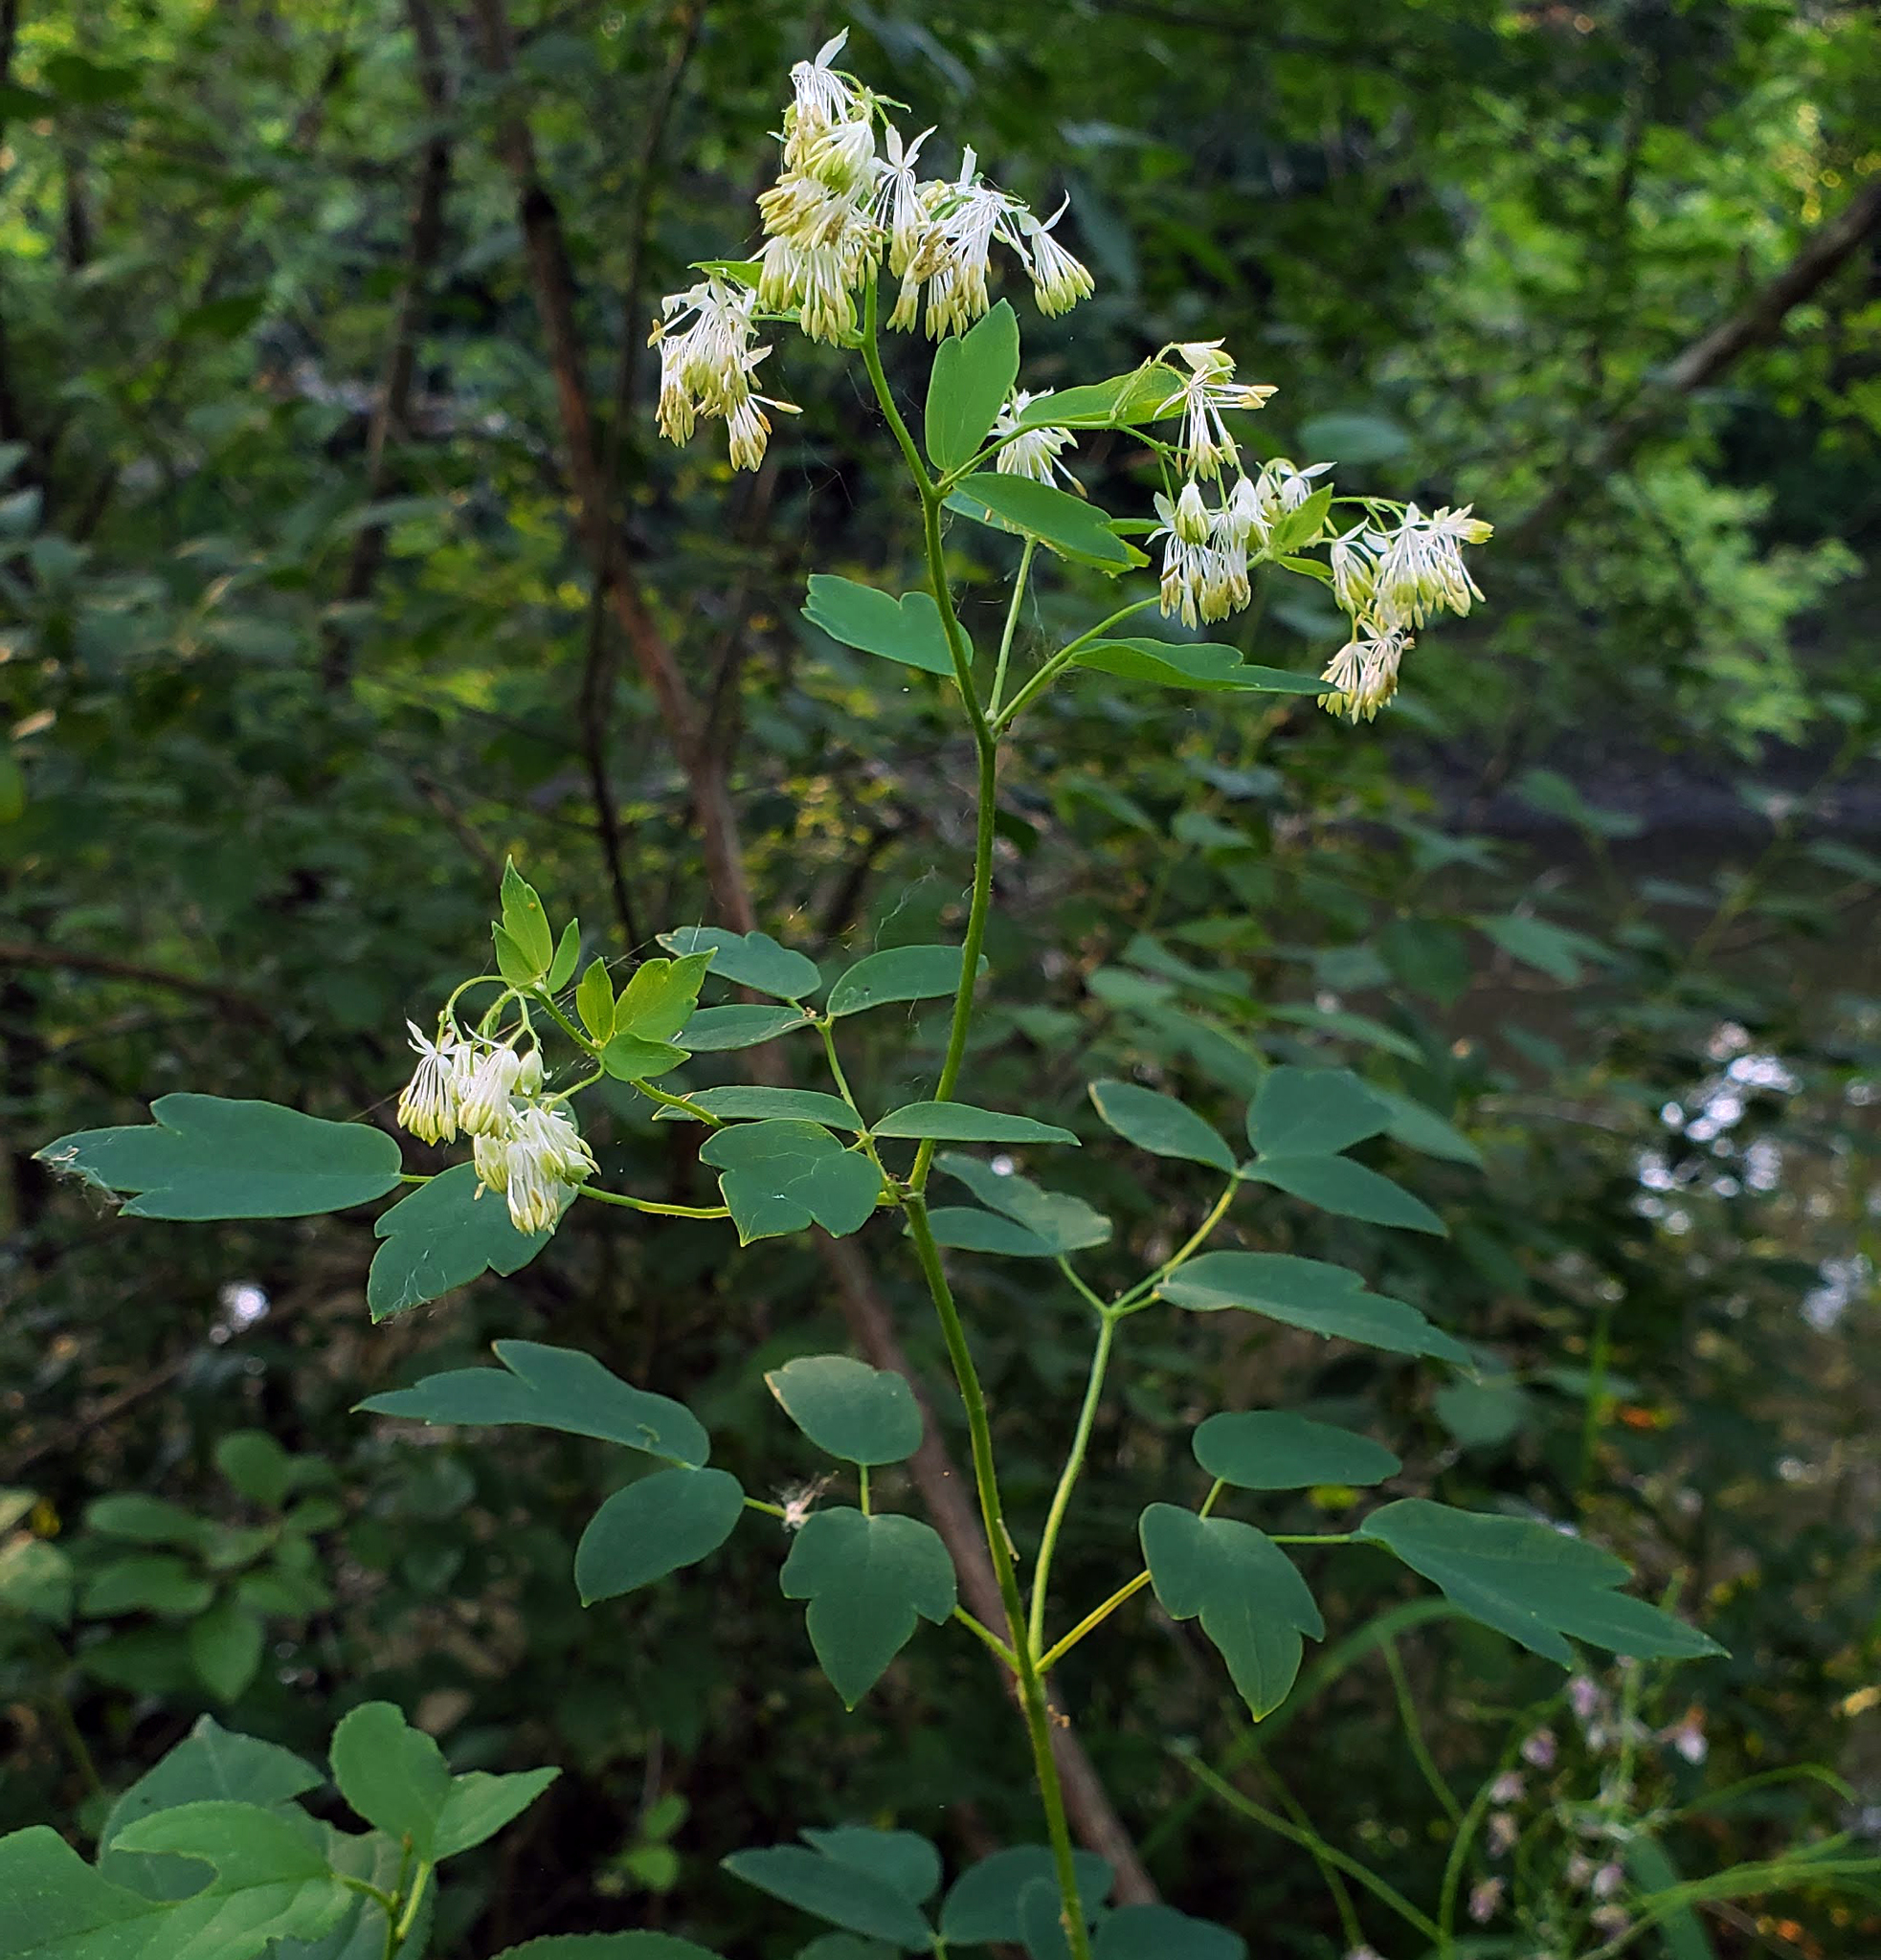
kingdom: Plantae
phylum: Tracheophyta
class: Magnoliopsida
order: Ranunculales
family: Ranunculaceae
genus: Thalictrum
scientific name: Thalictrum dasycarpum
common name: Purple meadow-rue
